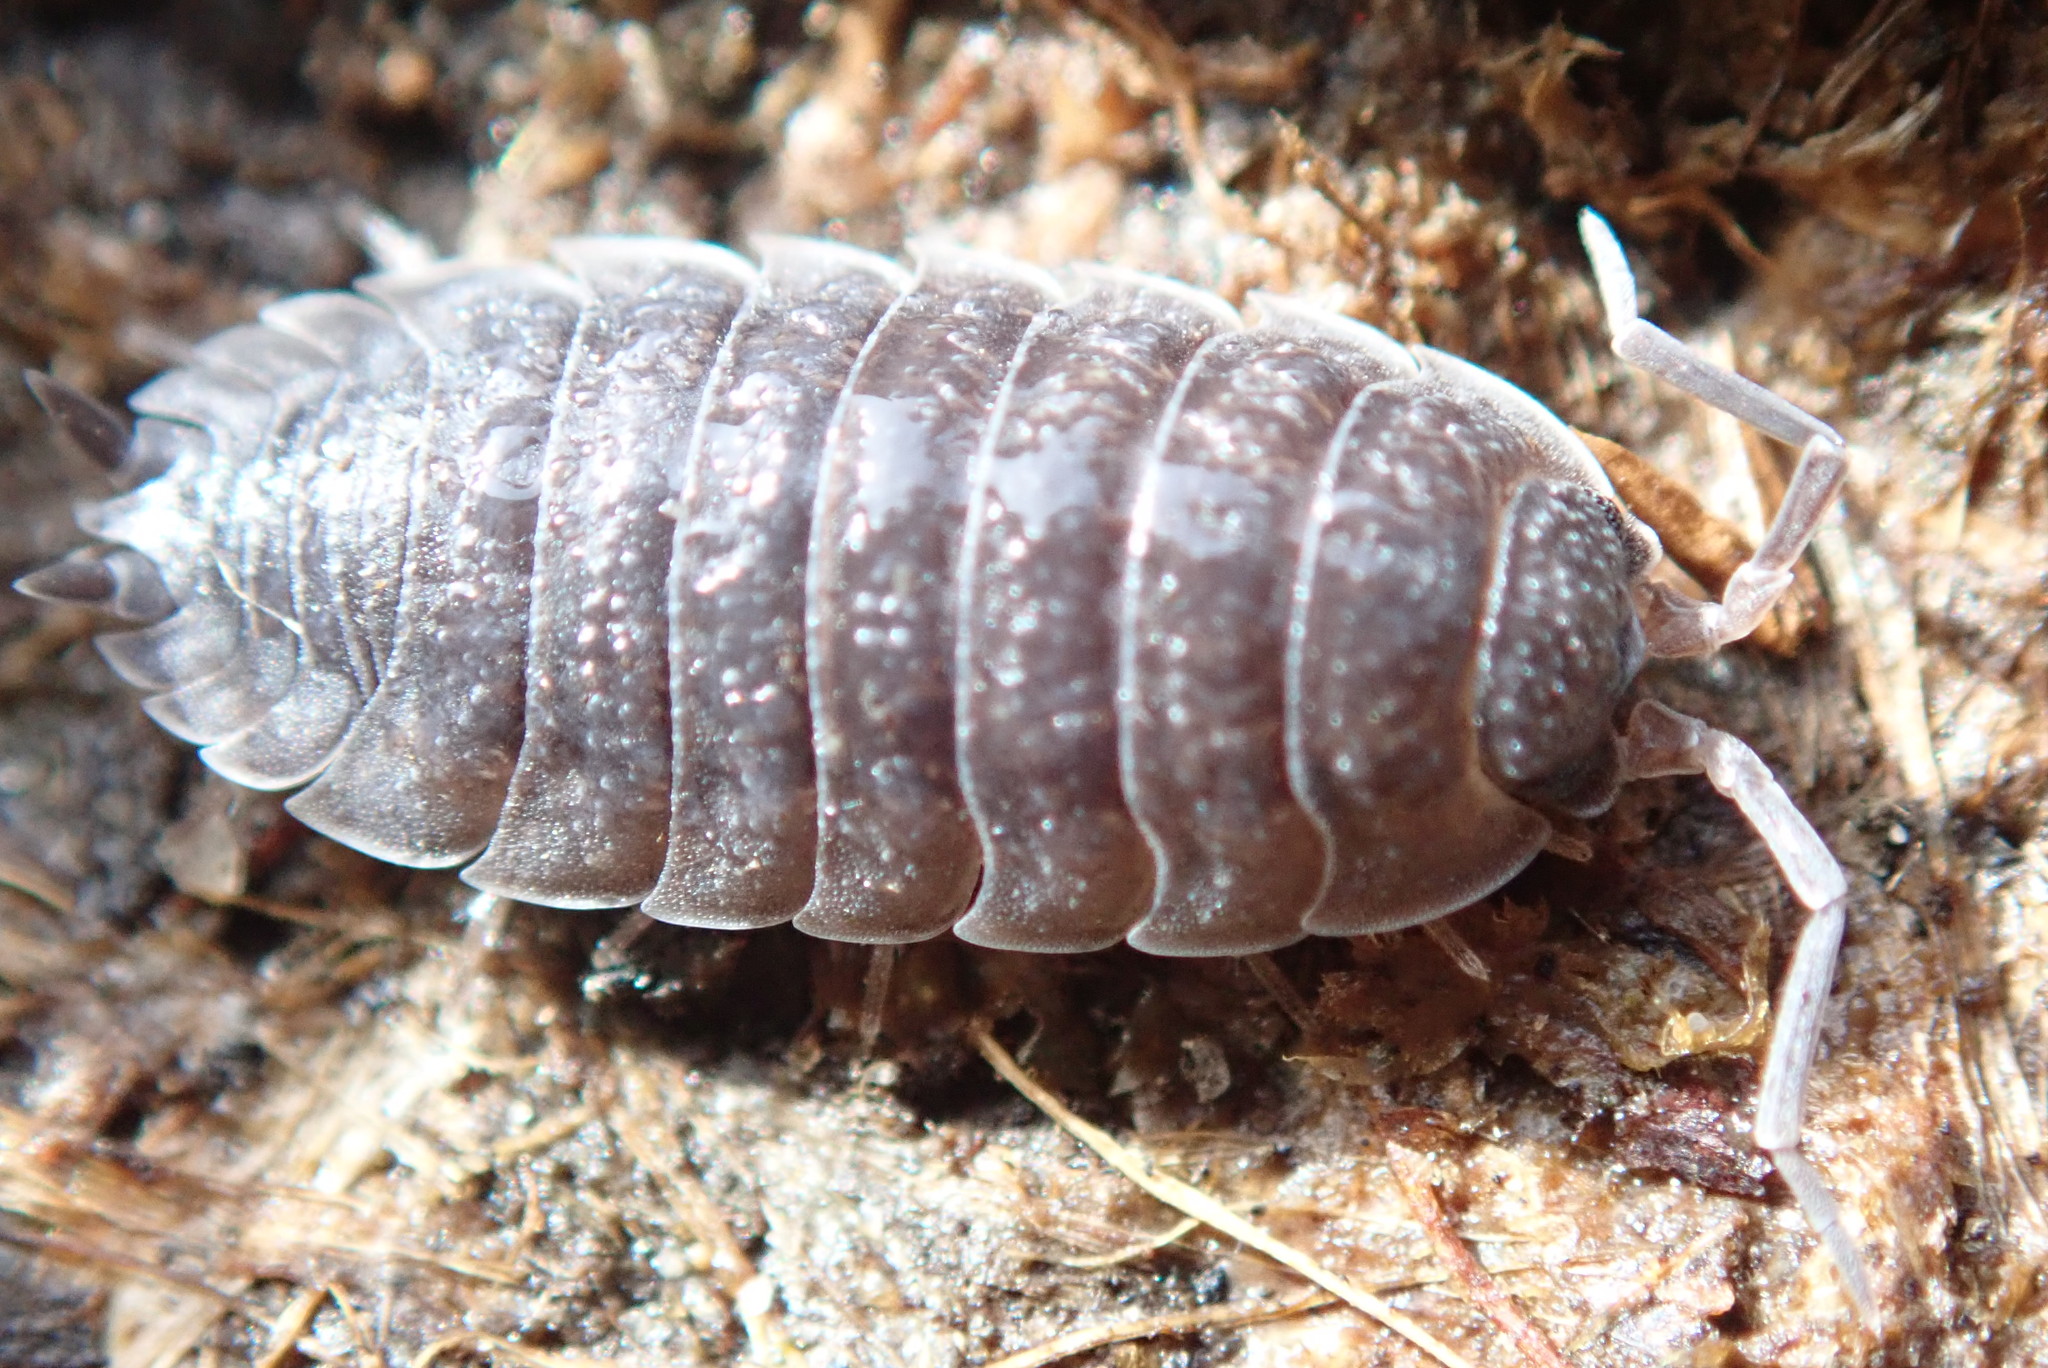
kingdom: Animalia
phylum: Arthropoda
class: Malacostraca
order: Isopoda
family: Porcellionidae
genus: Porcellio
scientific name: Porcellio scaber
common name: Common rough woodlouse
